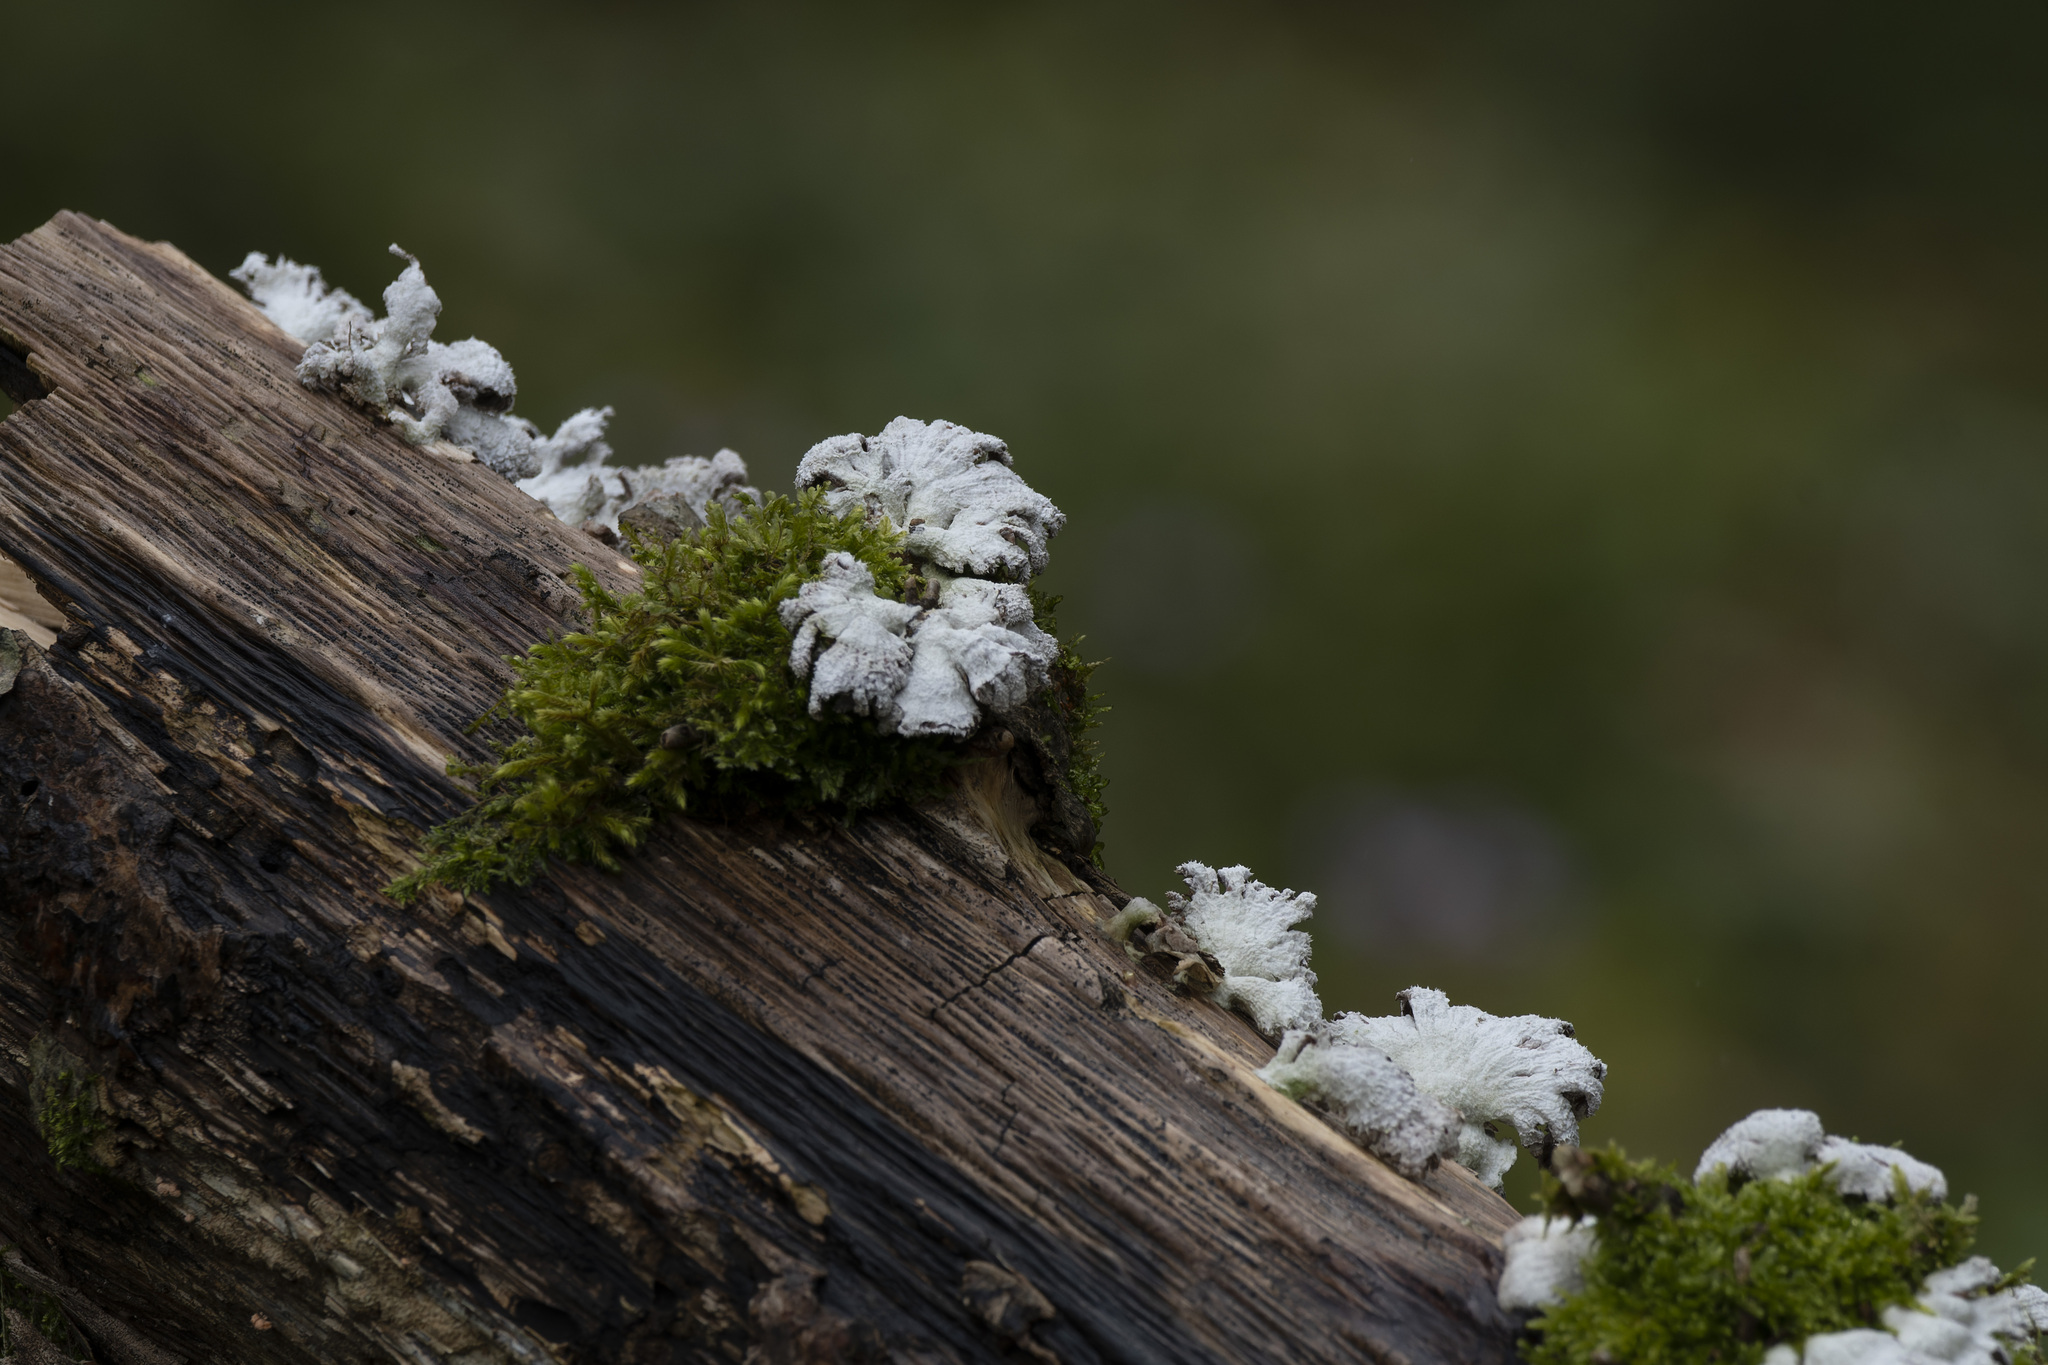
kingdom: Fungi
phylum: Basidiomycota
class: Agaricomycetes
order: Agaricales
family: Schizophyllaceae
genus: Schizophyllum
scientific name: Schizophyllum commune
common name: Common porecrust
